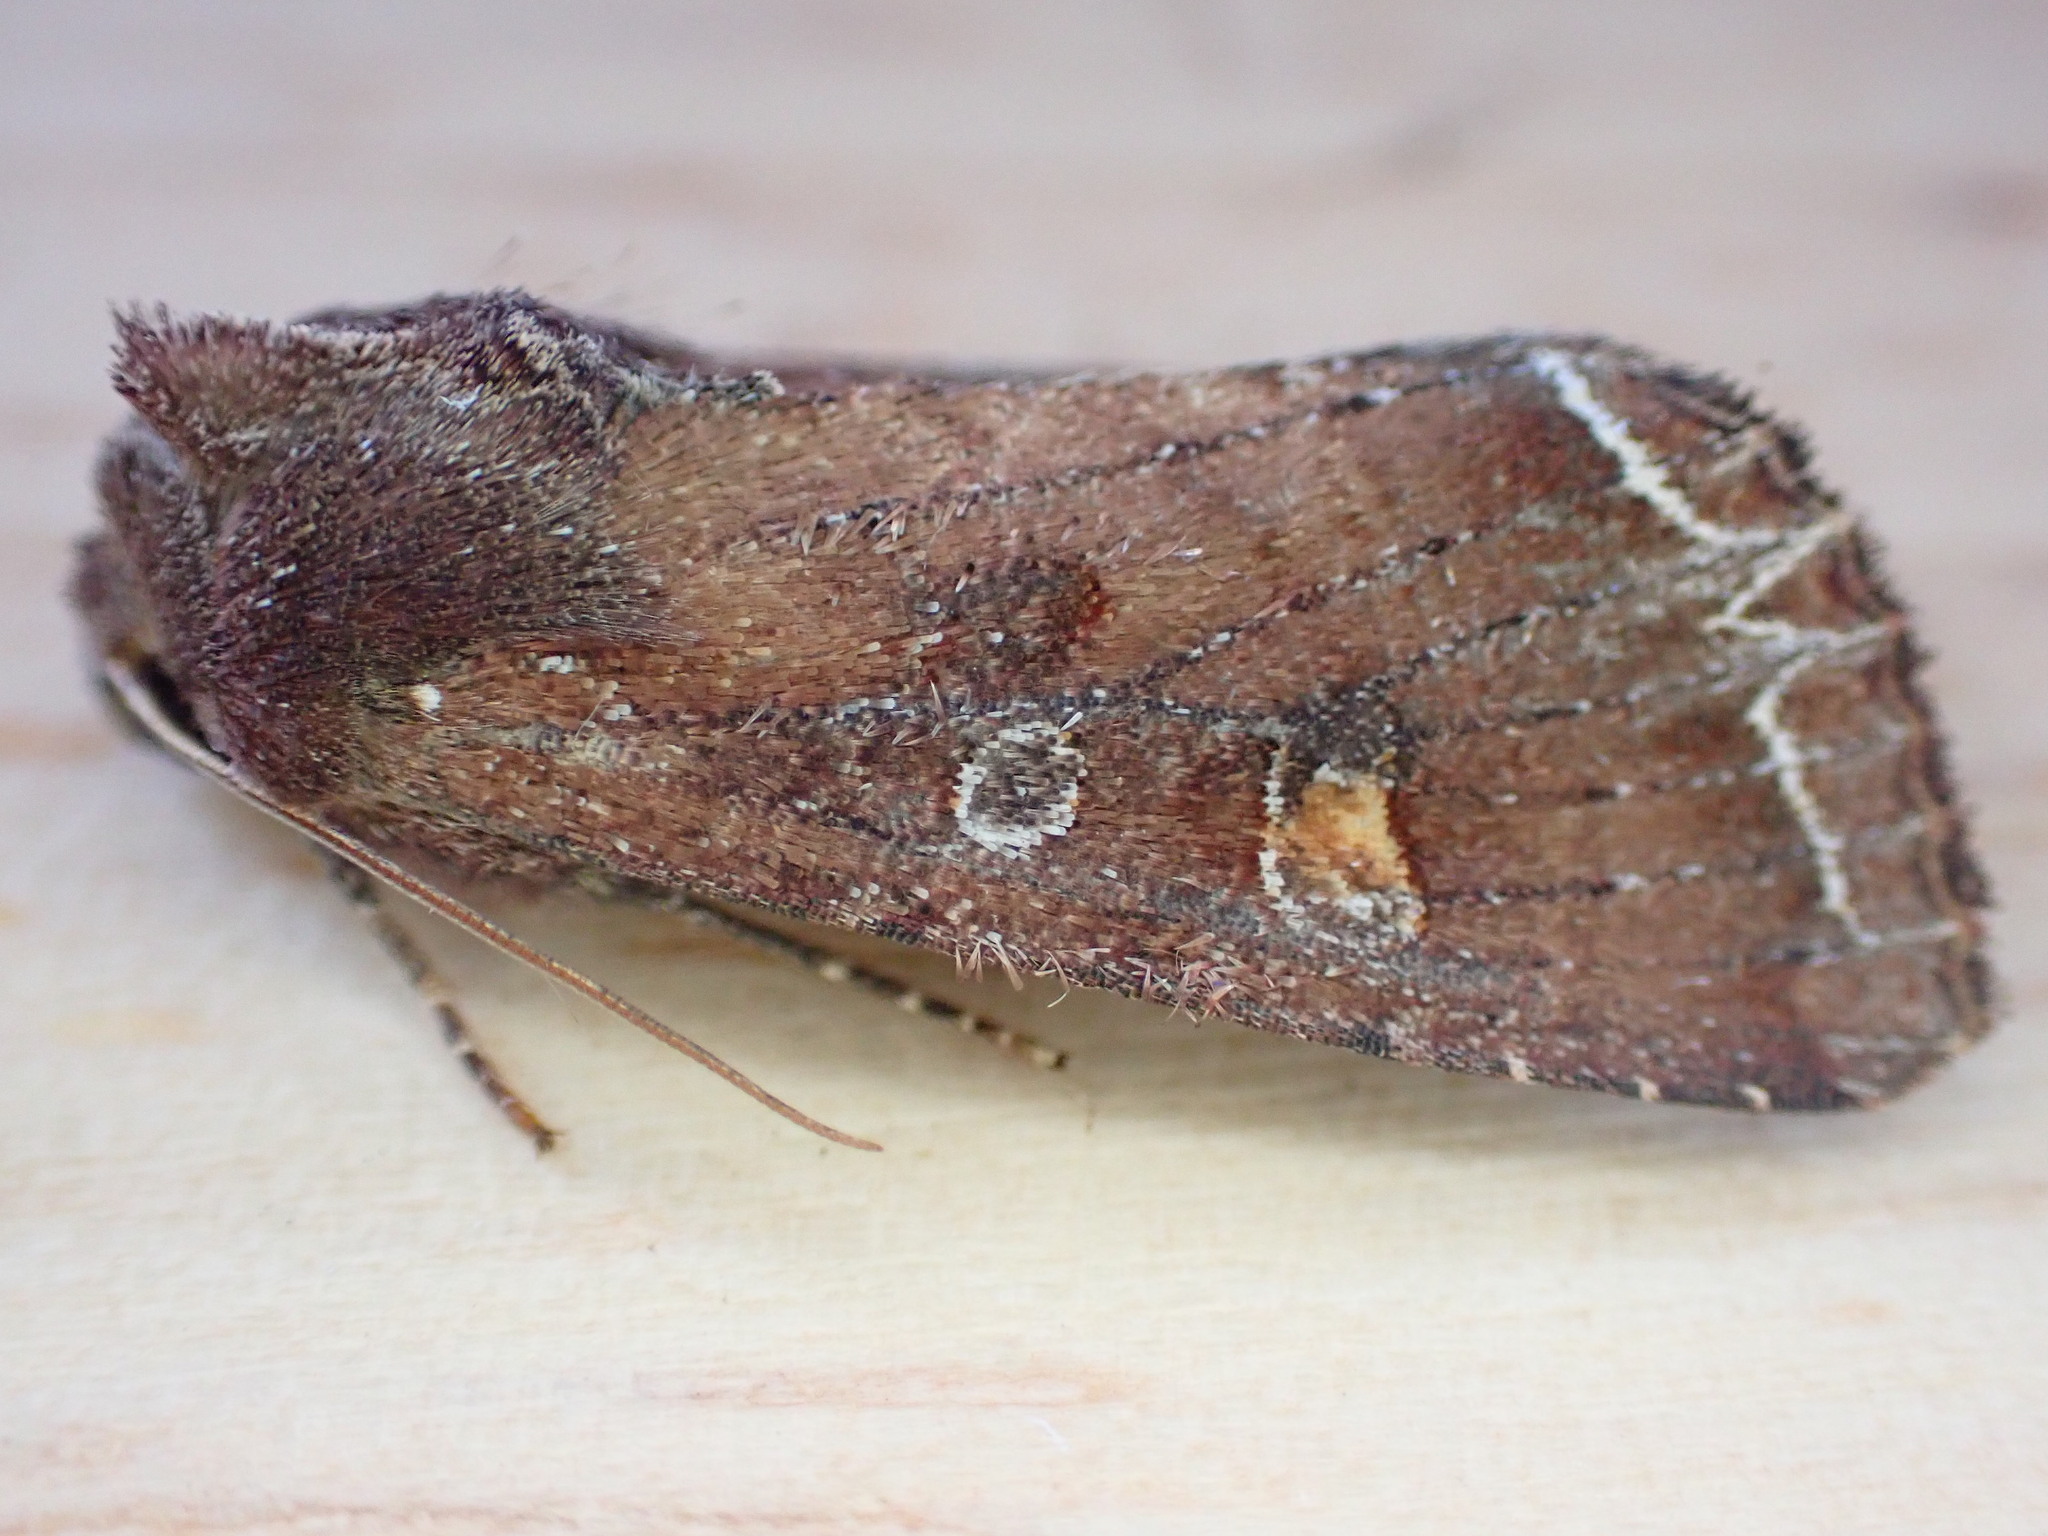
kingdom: Animalia
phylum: Arthropoda
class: Insecta
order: Lepidoptera
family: Noctuidae
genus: Lacanobia
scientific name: Lacanobia oleracea
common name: Bright-line brown-eye
